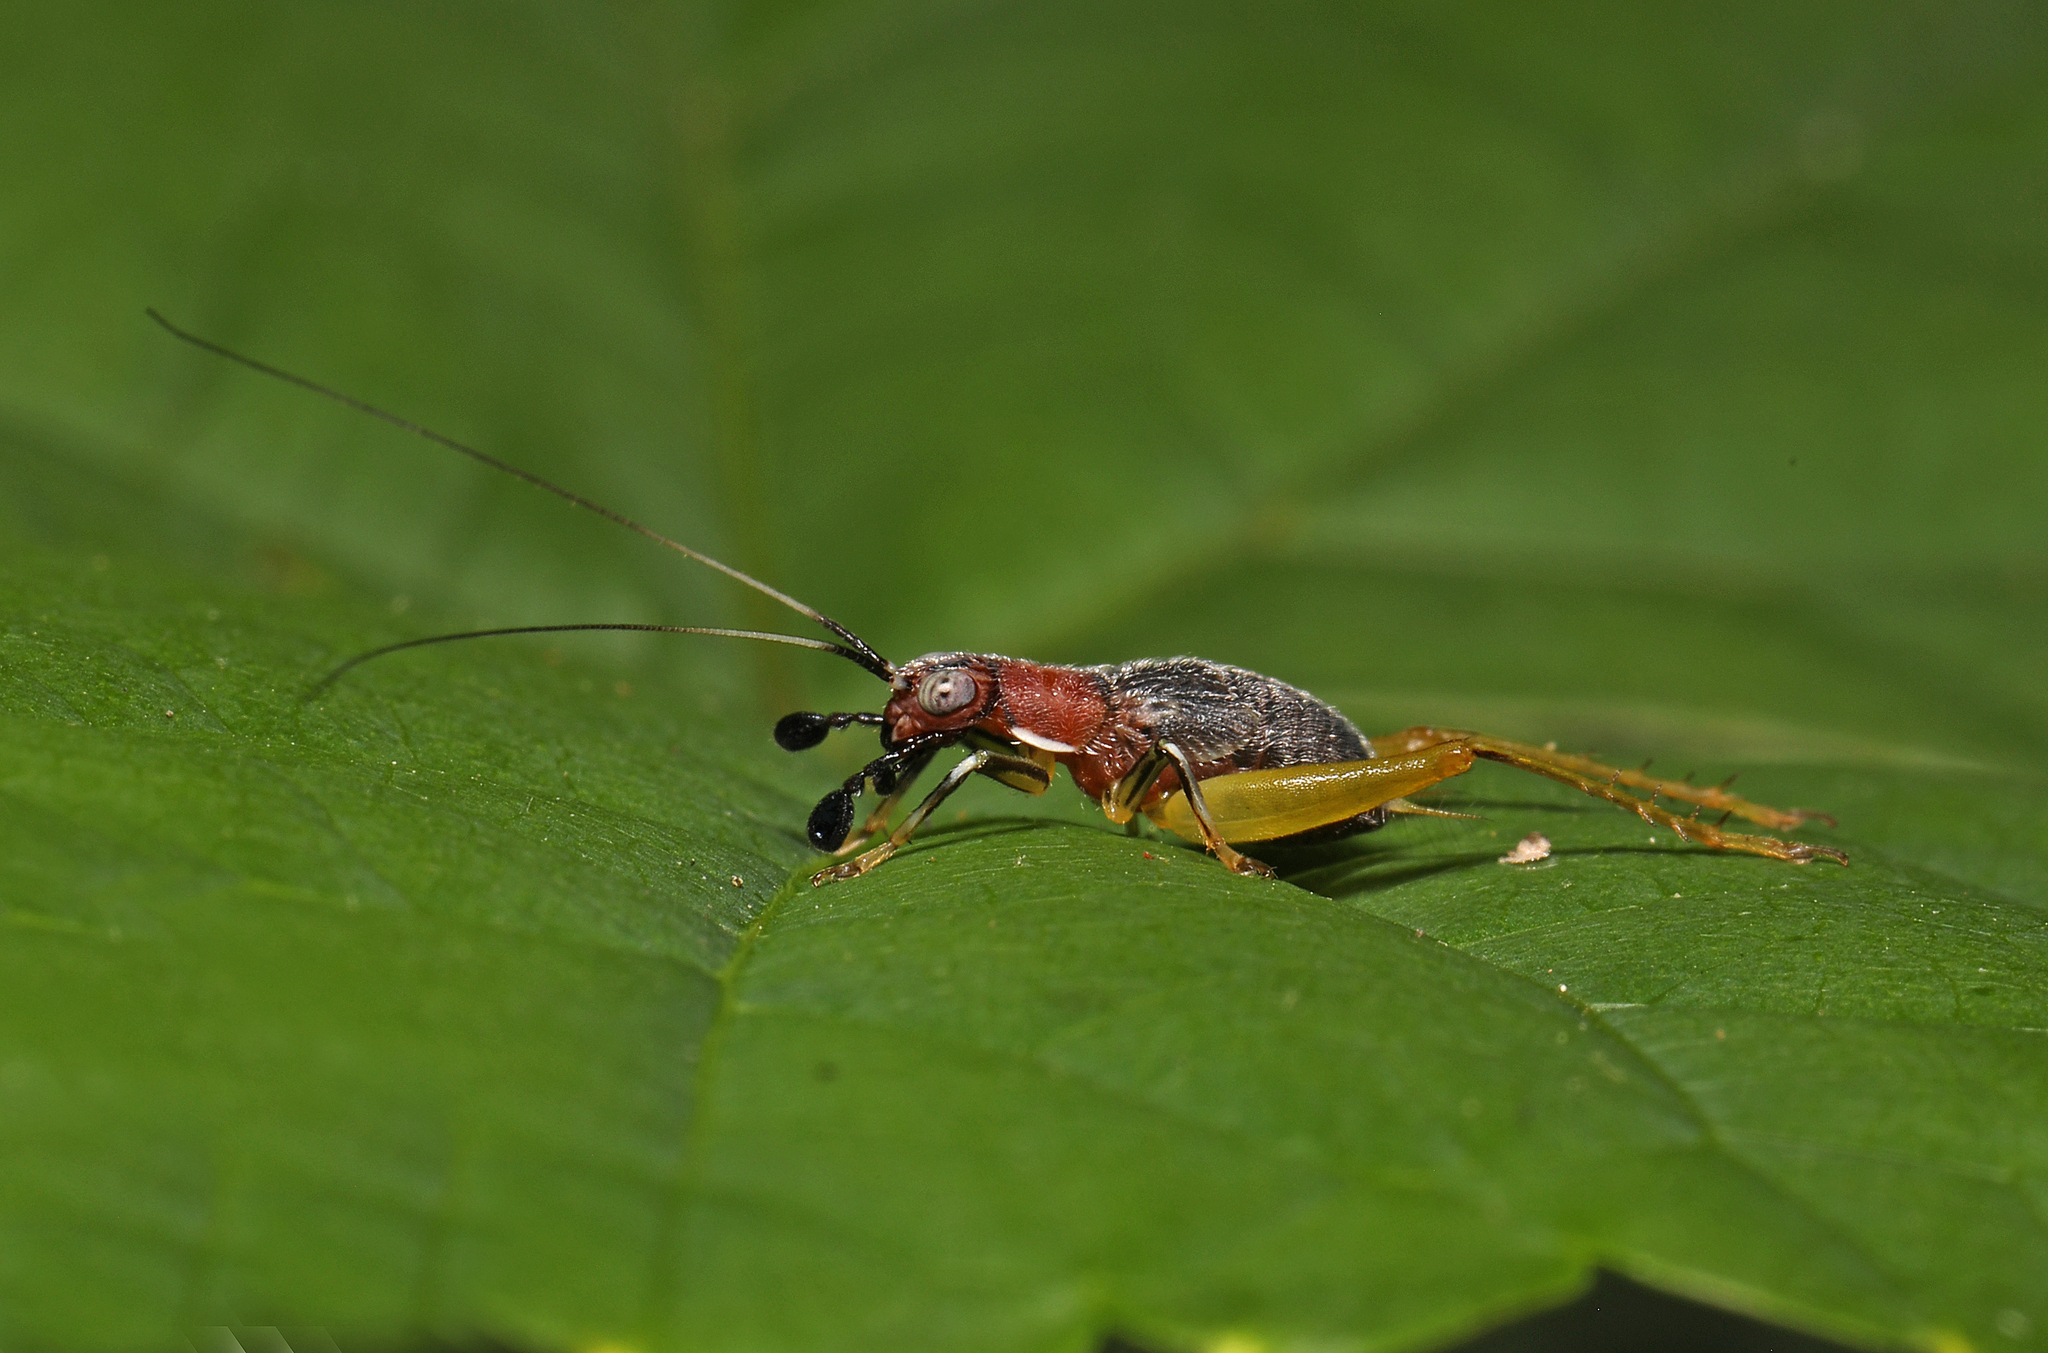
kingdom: Animalia
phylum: Arthropoda
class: Insecta
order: Orthoptera
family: Trigonidiidae
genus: Phyllopalpus
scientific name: Phyllopalpus pulchellus
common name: Handsome trig
